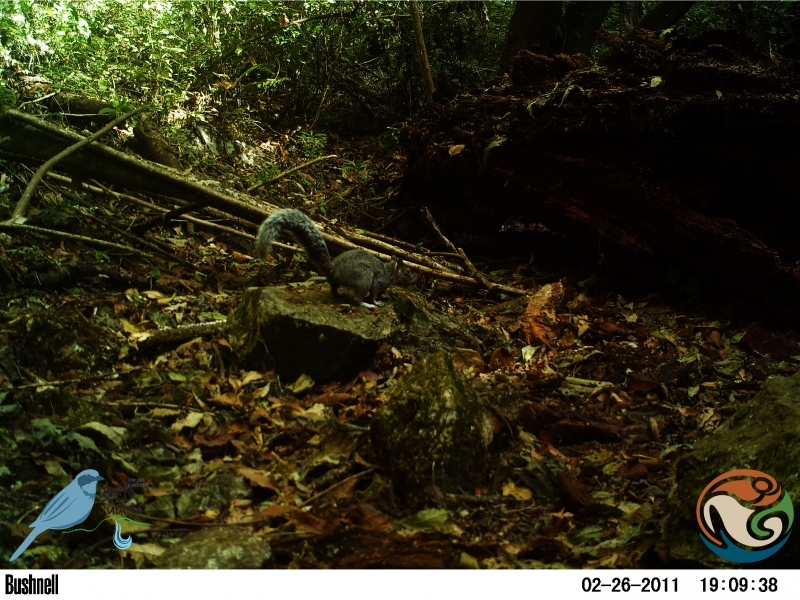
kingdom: Animalia
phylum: Chordata
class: Mammalia
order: Rodentia
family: Sciuridae
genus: Sciurus
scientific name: Sciurus aureogaster
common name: Red-bellied squirrel
